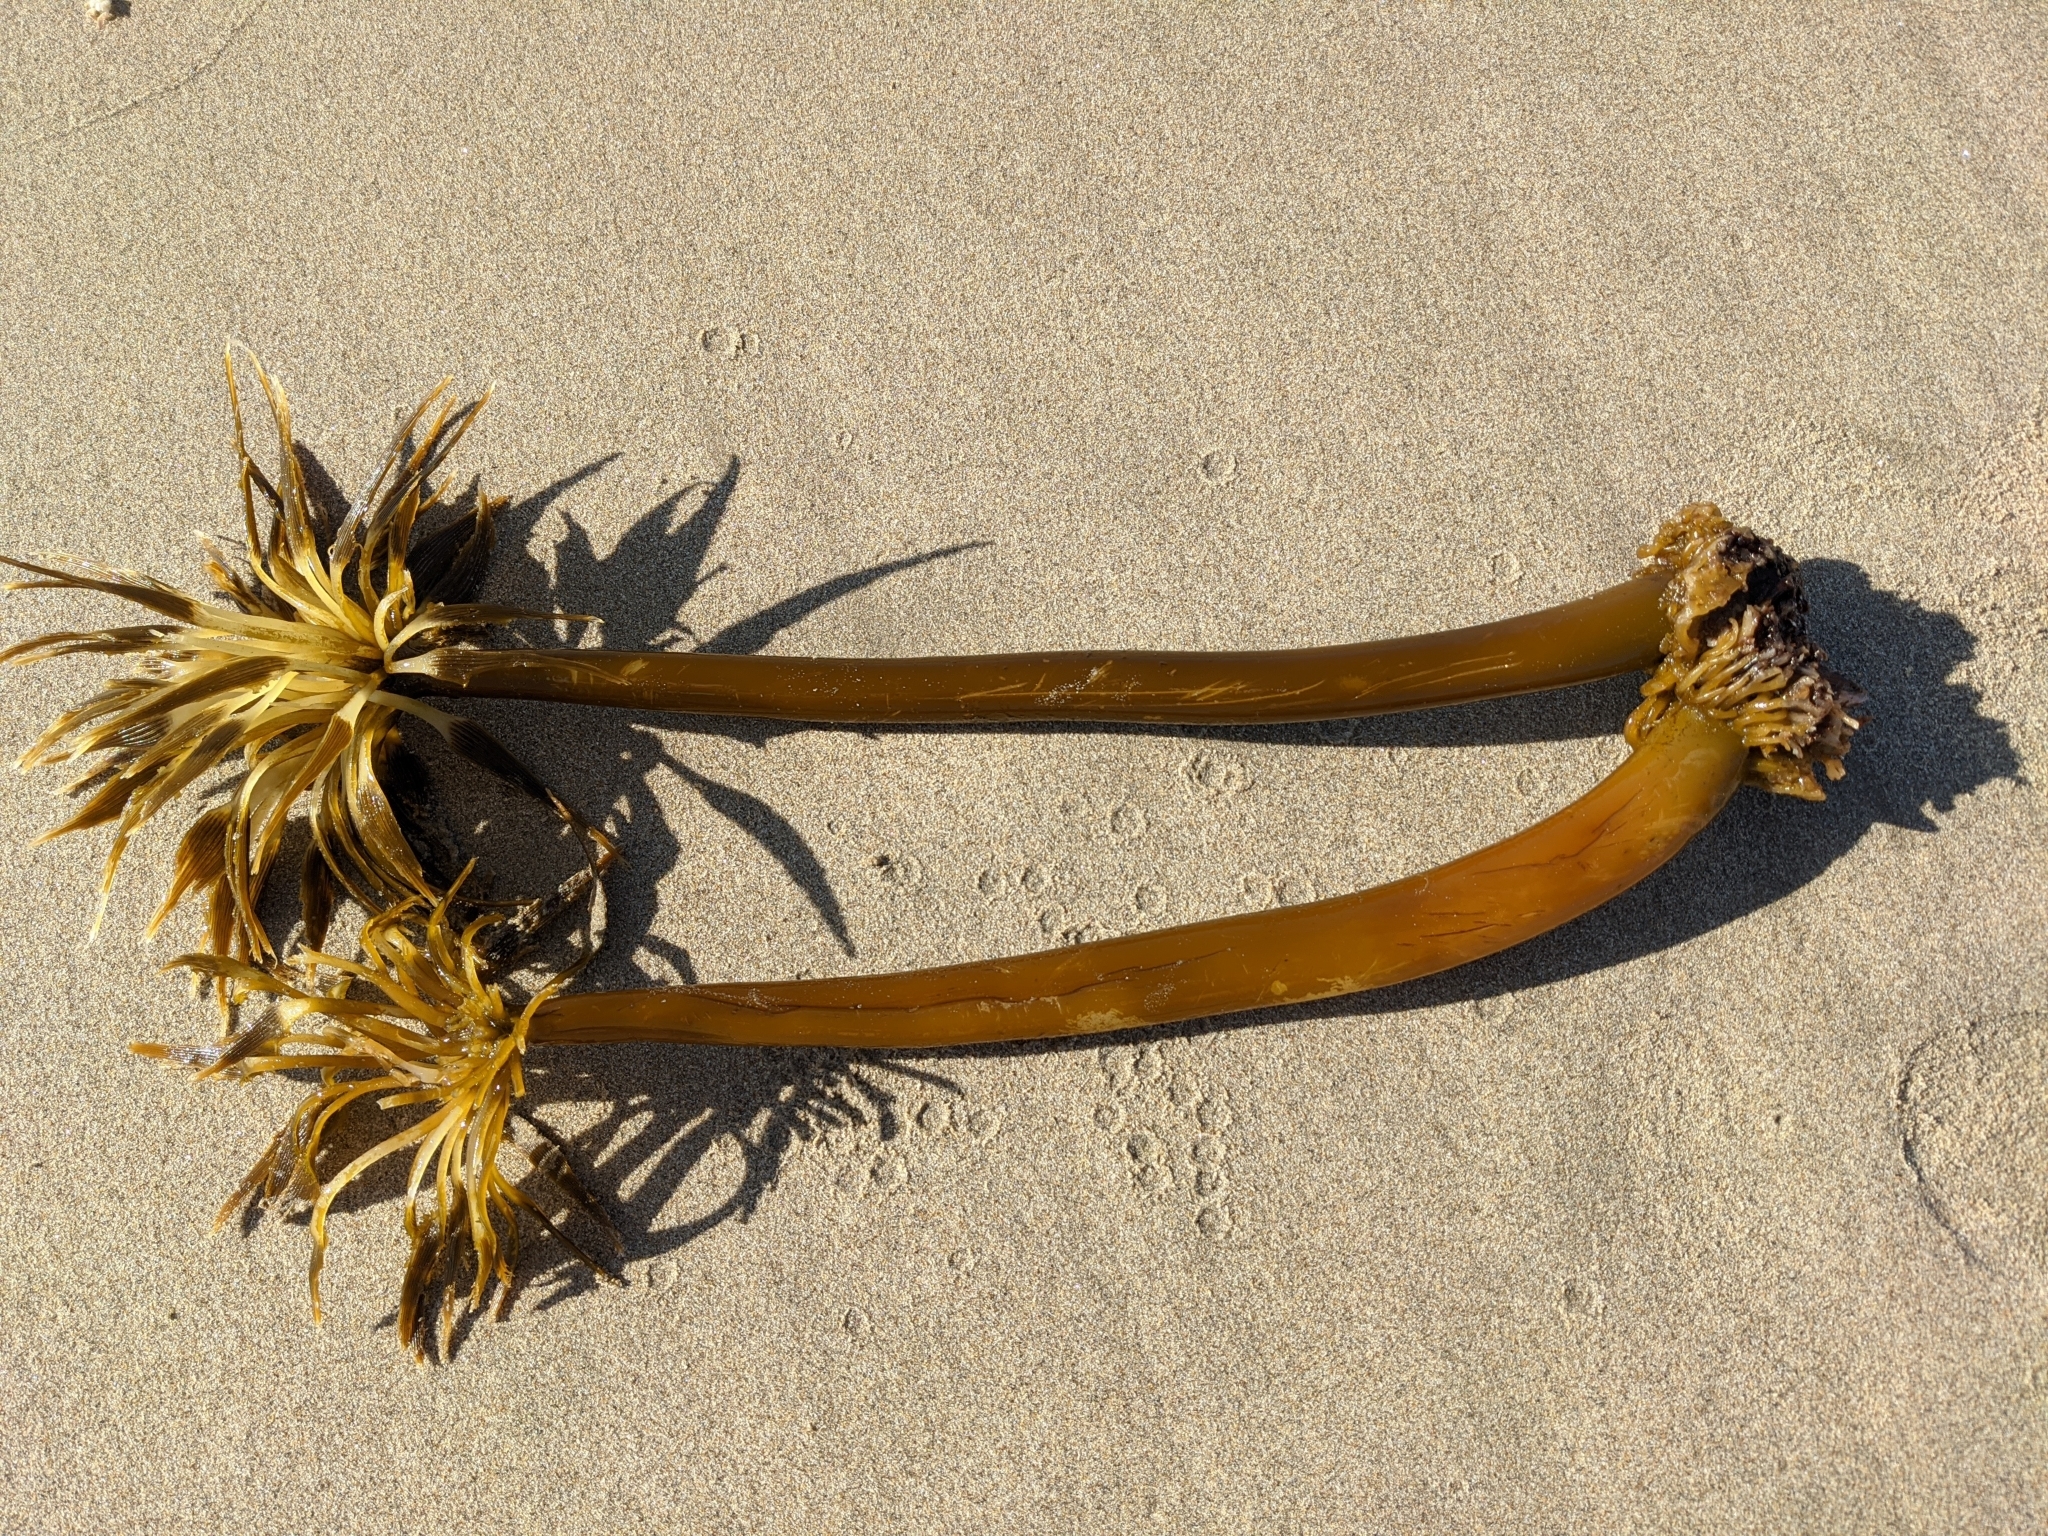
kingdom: Chromista
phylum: Ochrophyta
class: Phaeophyceae
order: Laminariales
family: Laminariaceae
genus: Postelsia
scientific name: Postelsia palmiformis
